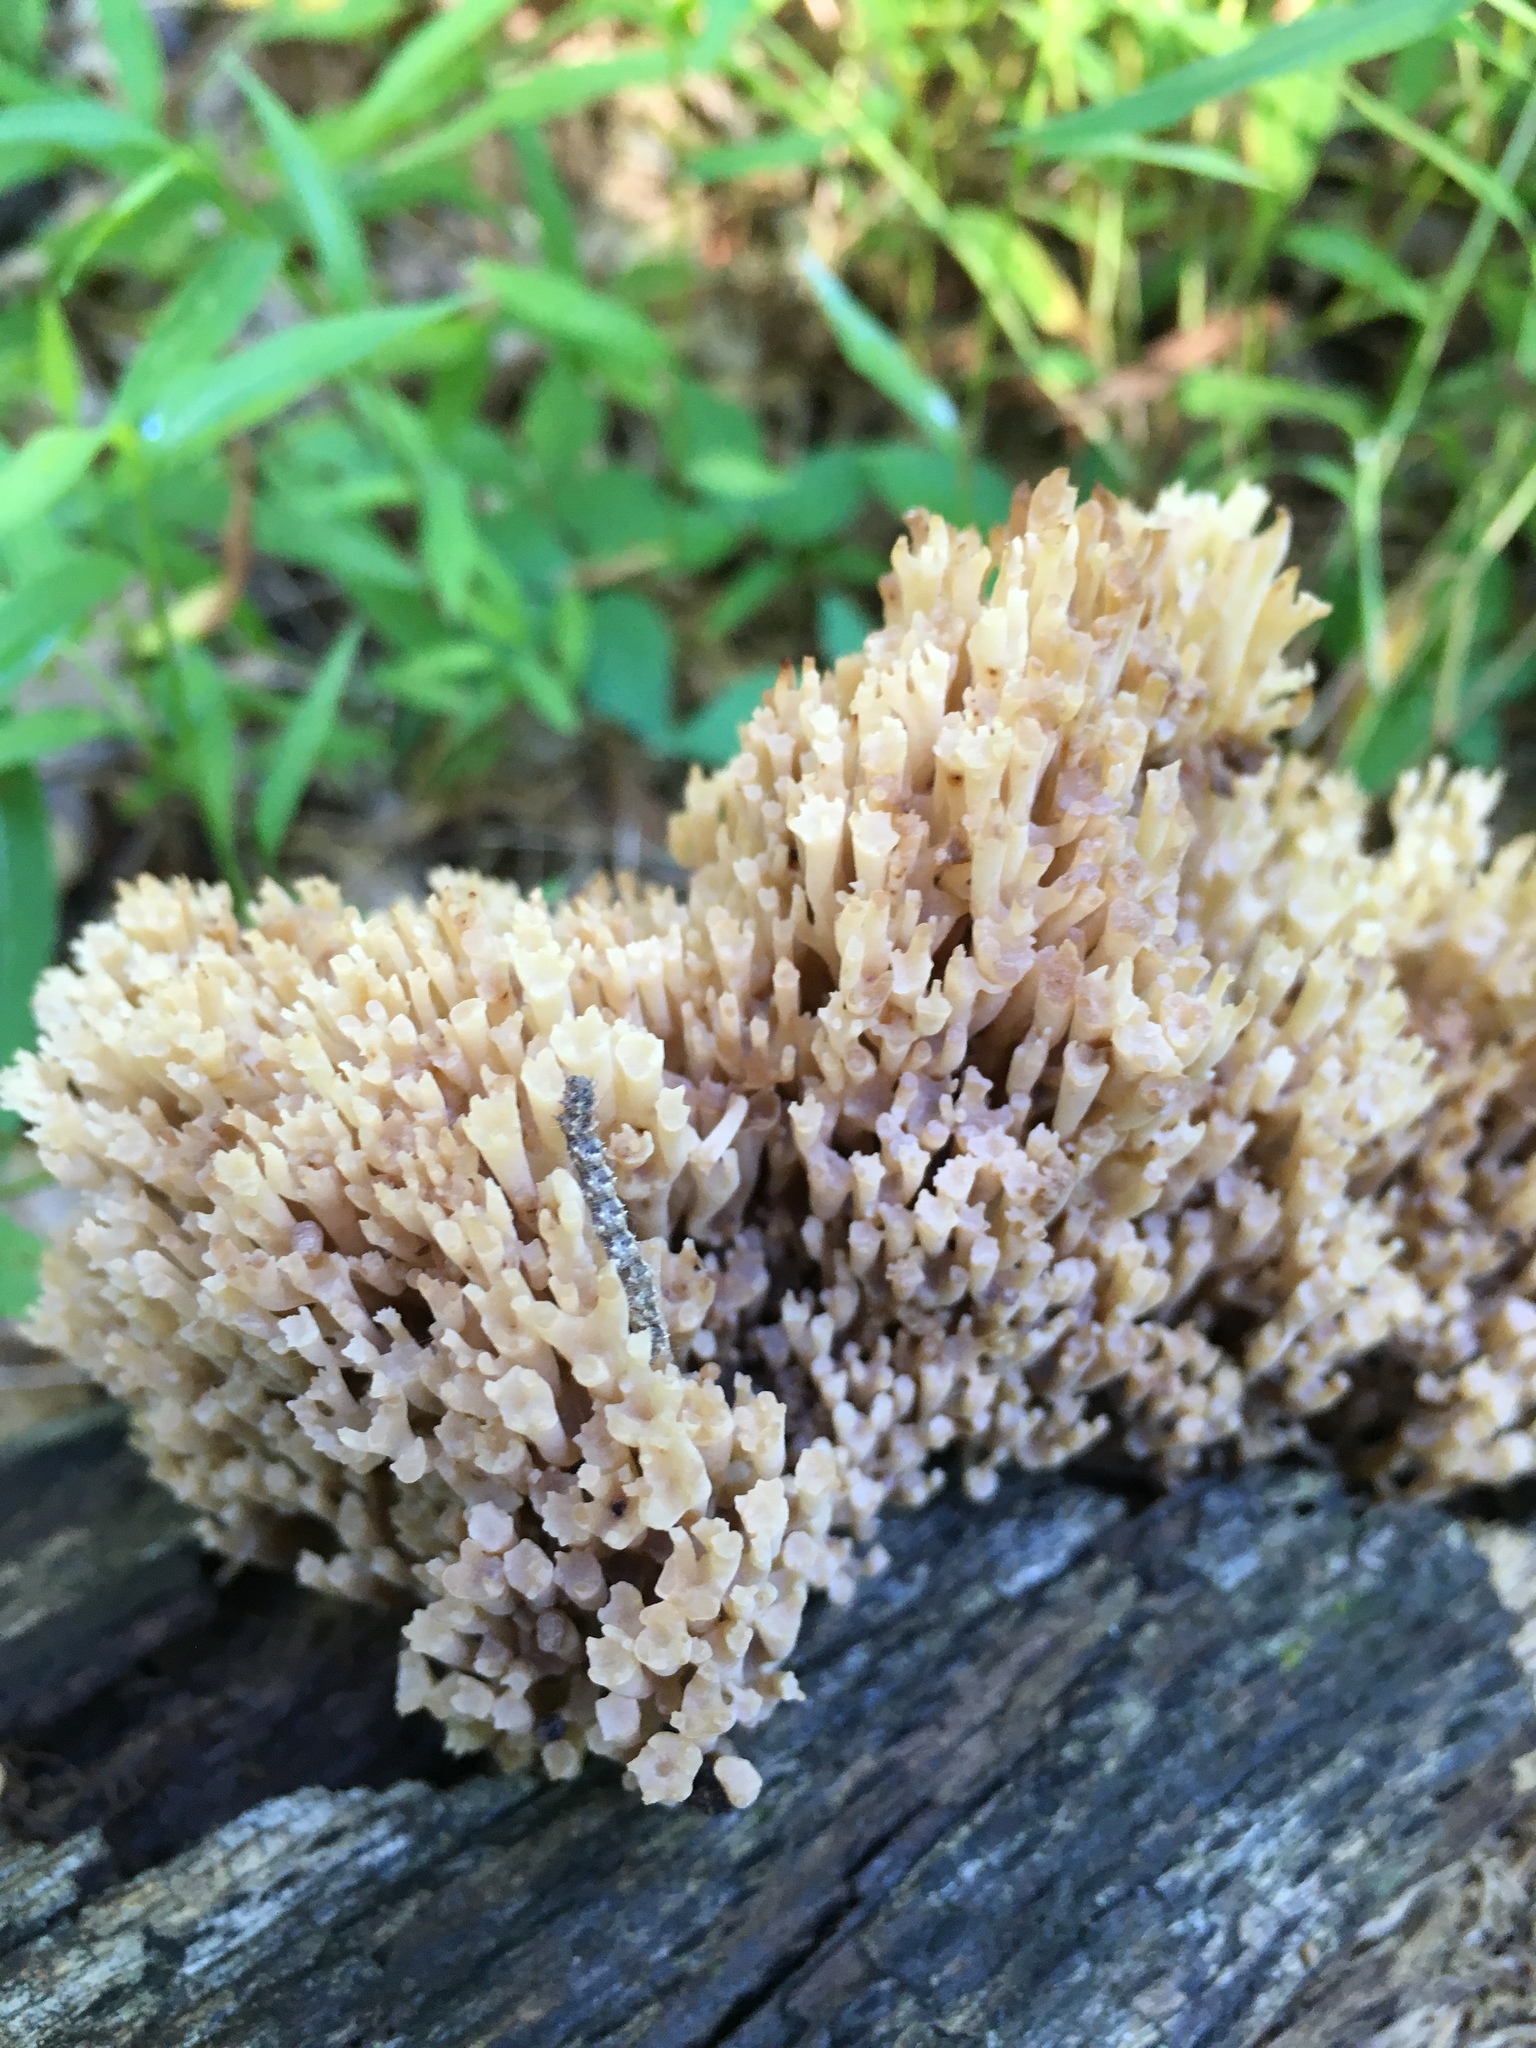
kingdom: Fungi
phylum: Basidiomycota
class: Agaricomycetes
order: Russulales
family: Auriscalpiaceae
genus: Artomyces
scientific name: Artomyces pyxidatus
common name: Crown-tipped coral fungus
